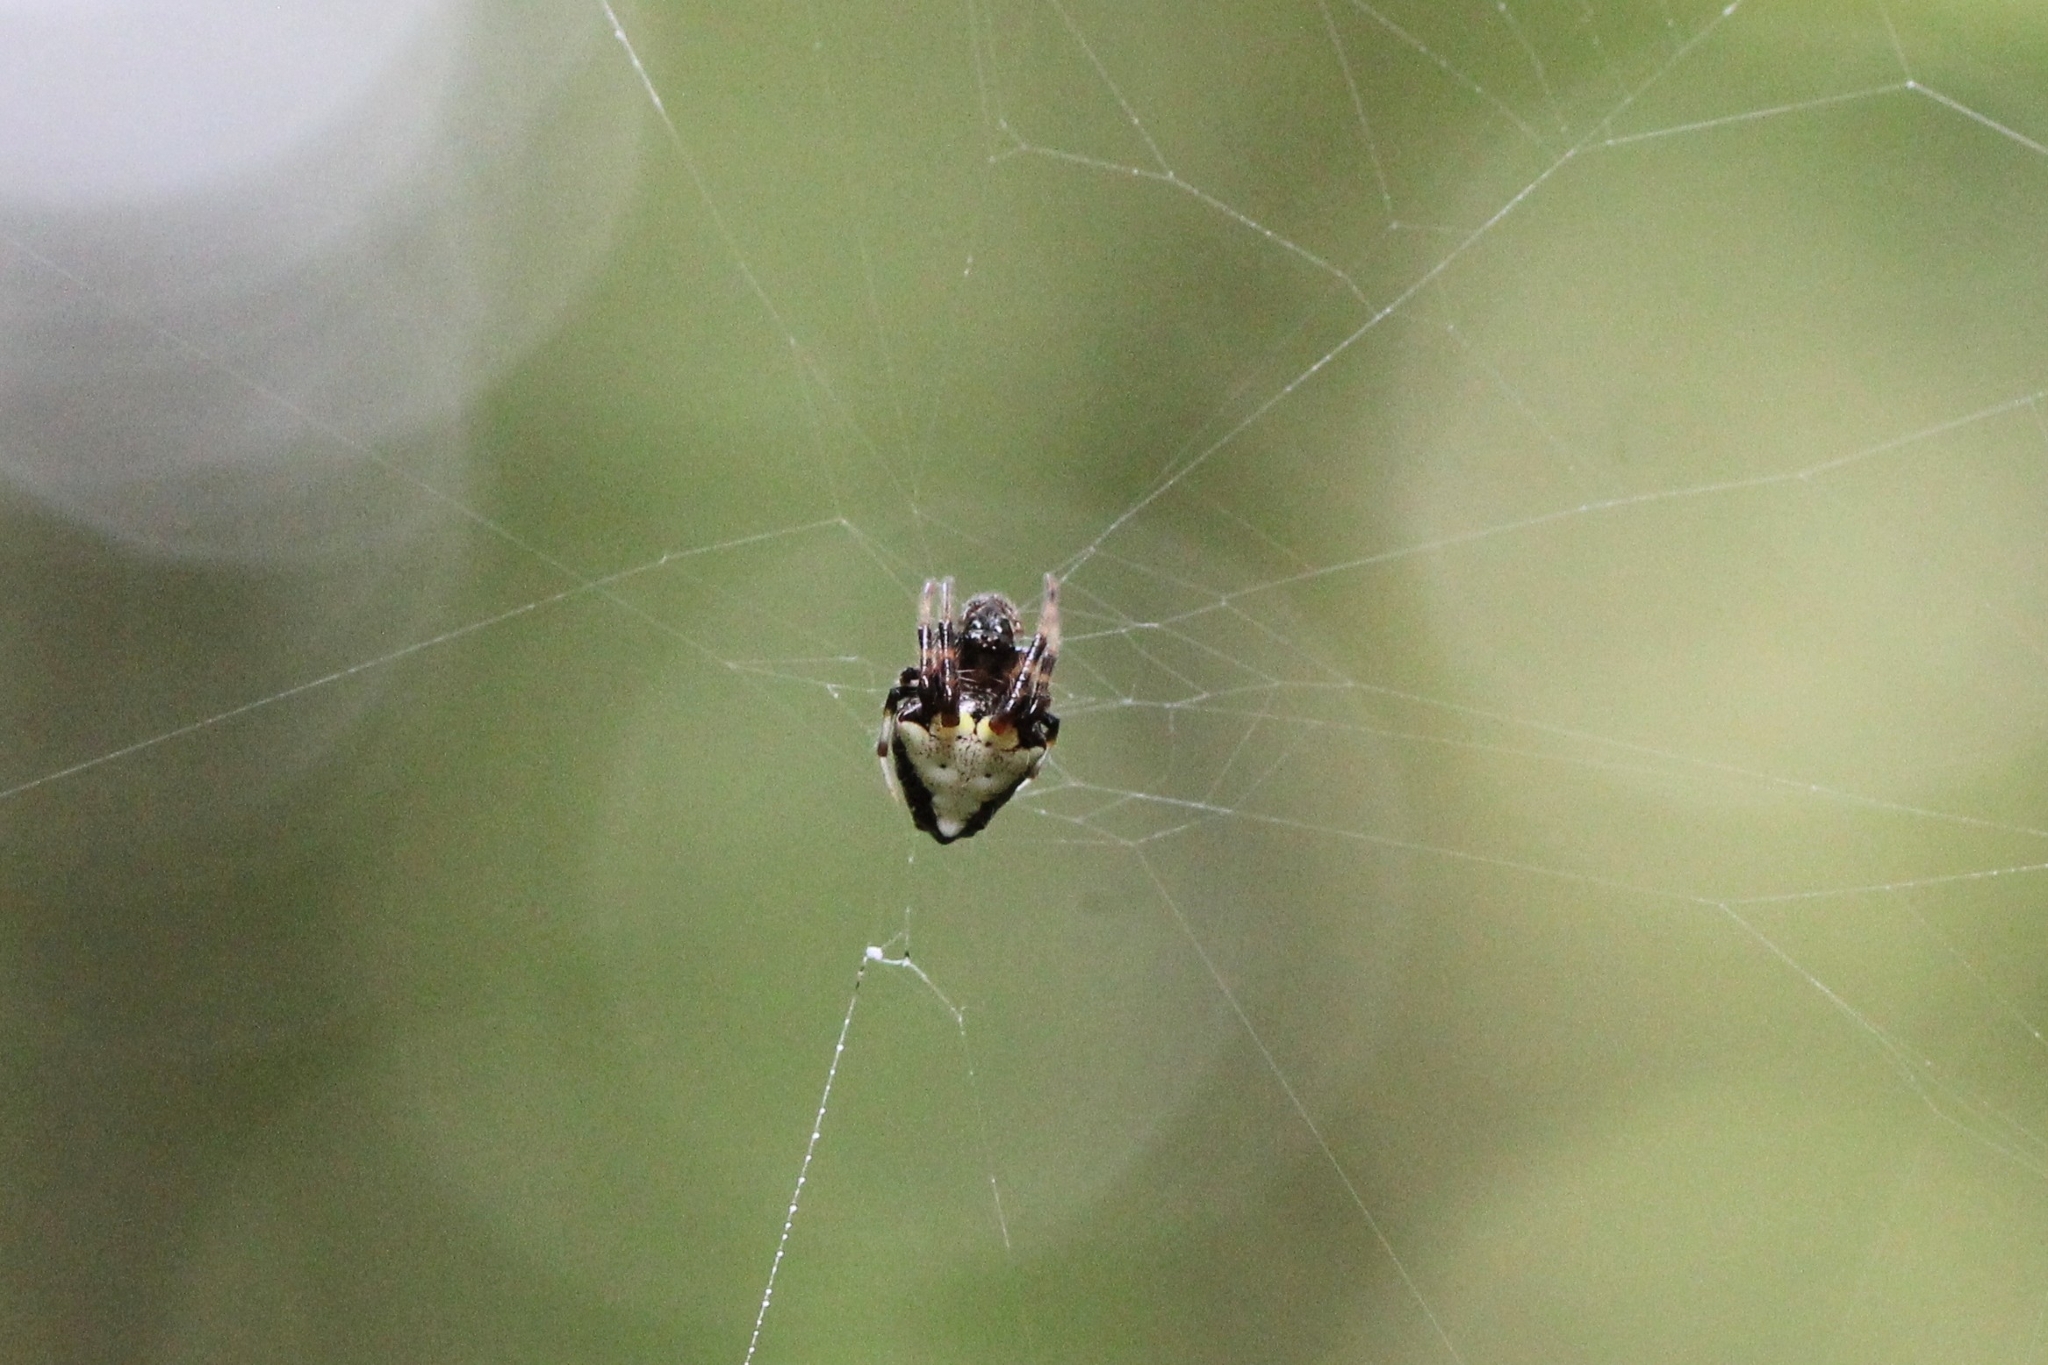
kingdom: Animalia
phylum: Arthropoda
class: Arachnida
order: Araneae
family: Araneidae
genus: Verrucosa
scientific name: Verrucosa arenata
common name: Orb weavers
